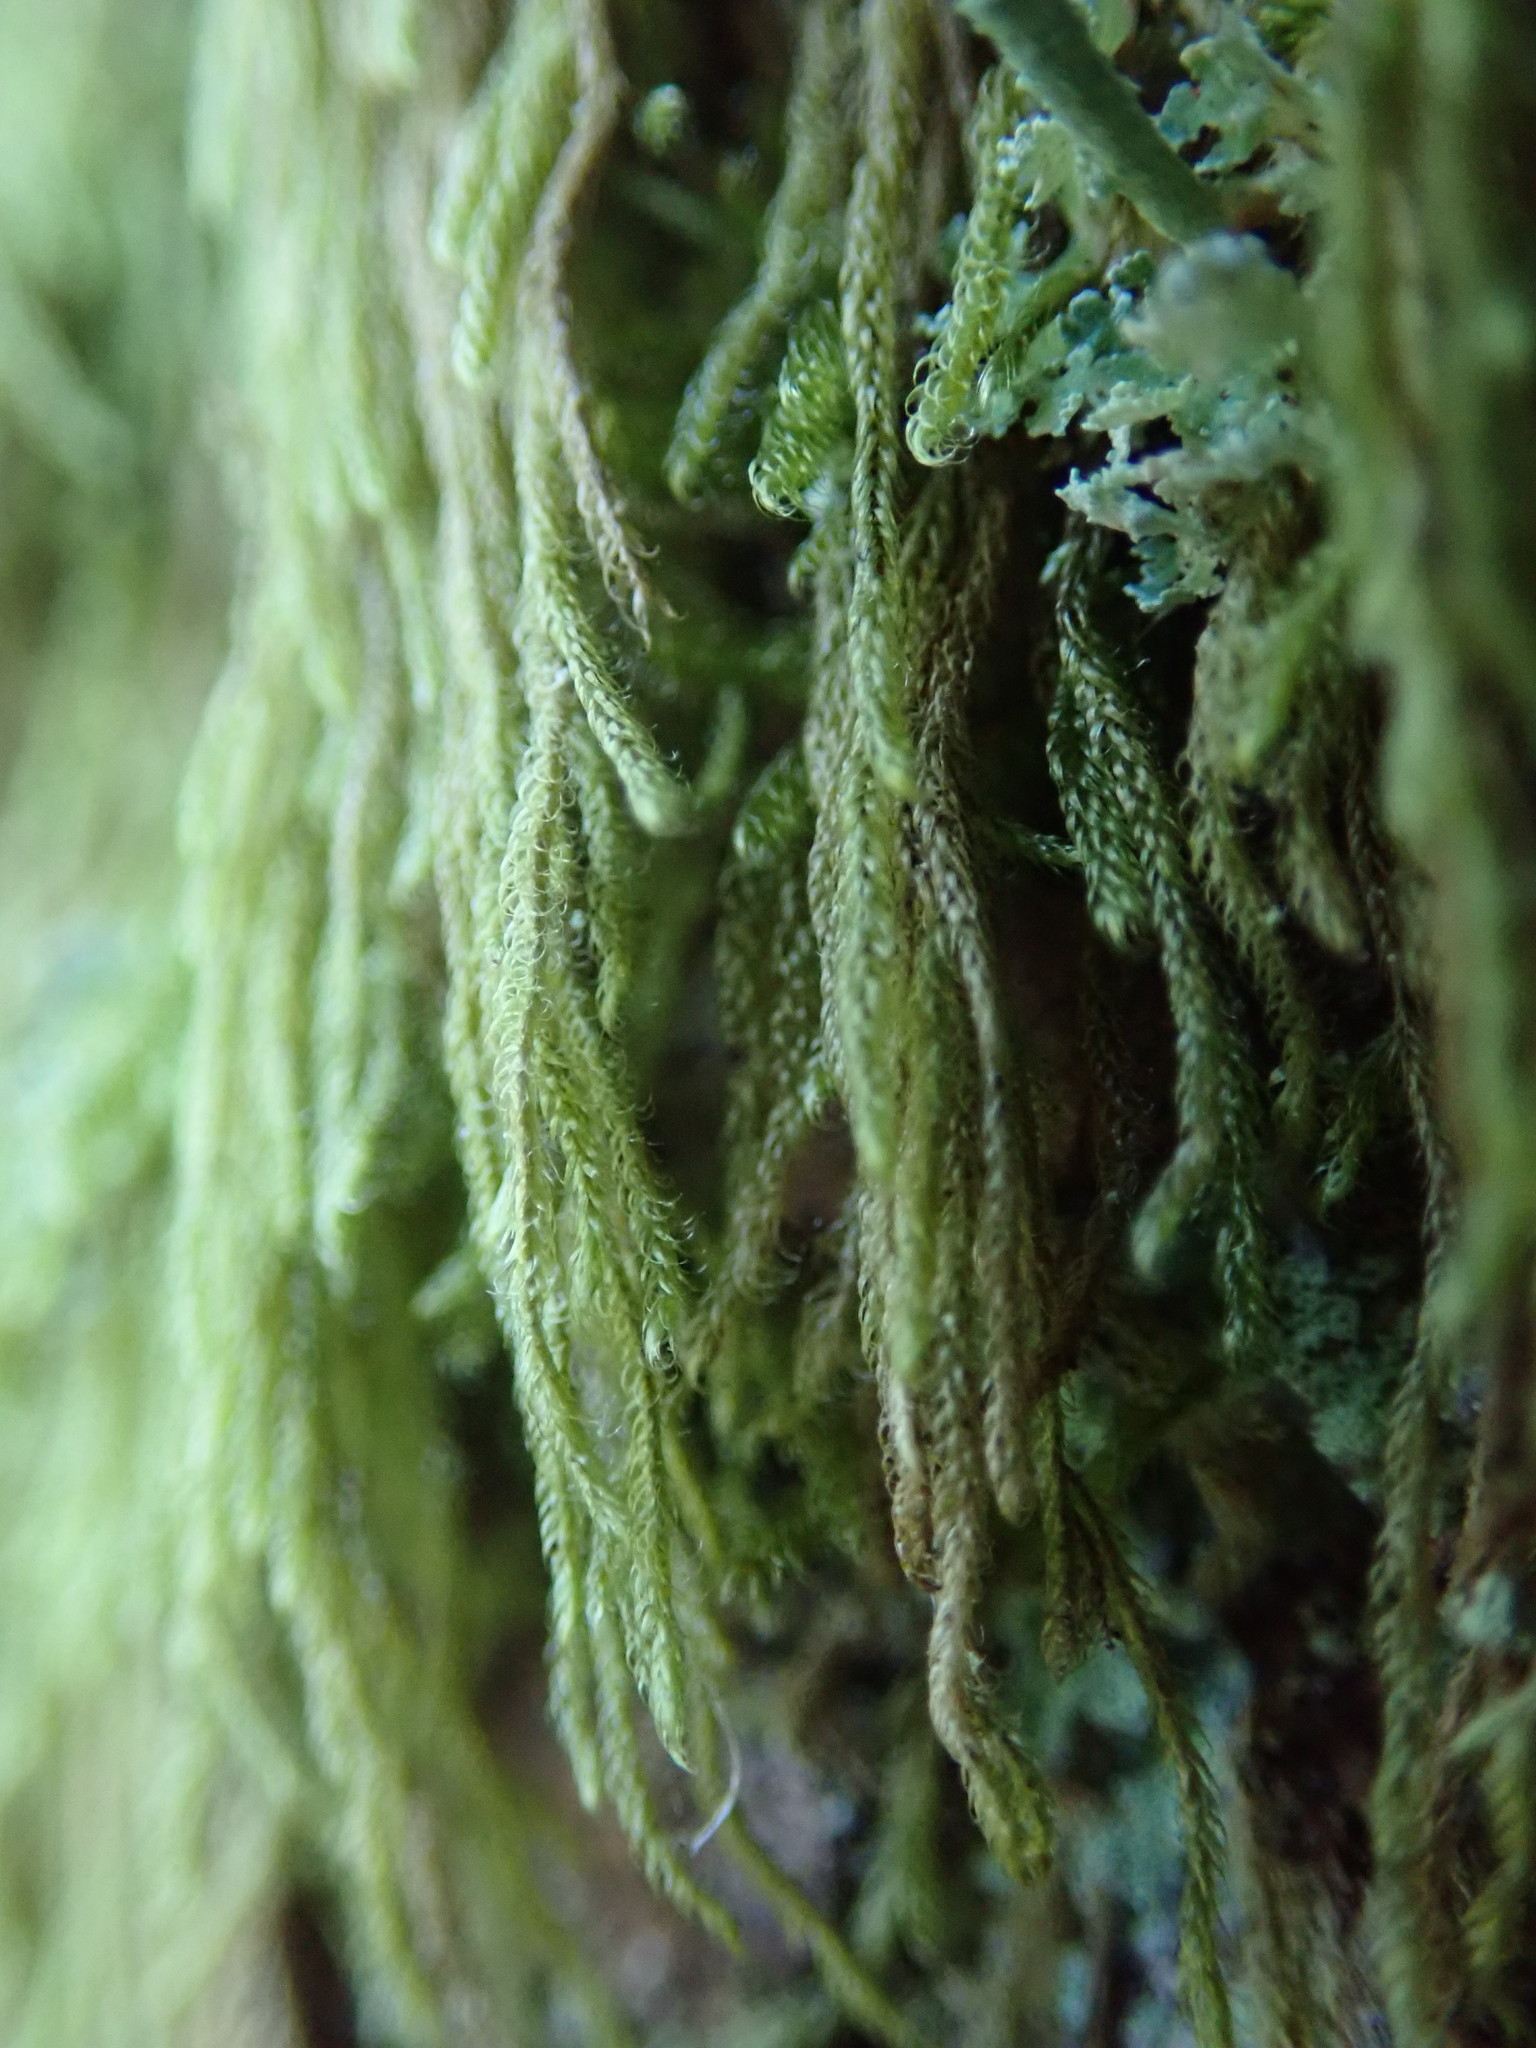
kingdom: Plantae
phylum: Bryophyta
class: Bryopsida
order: Hypnales
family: Pylaisiadelphaceae
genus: Trochophyllohypnum
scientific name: Trochophyllohypnum circinale
